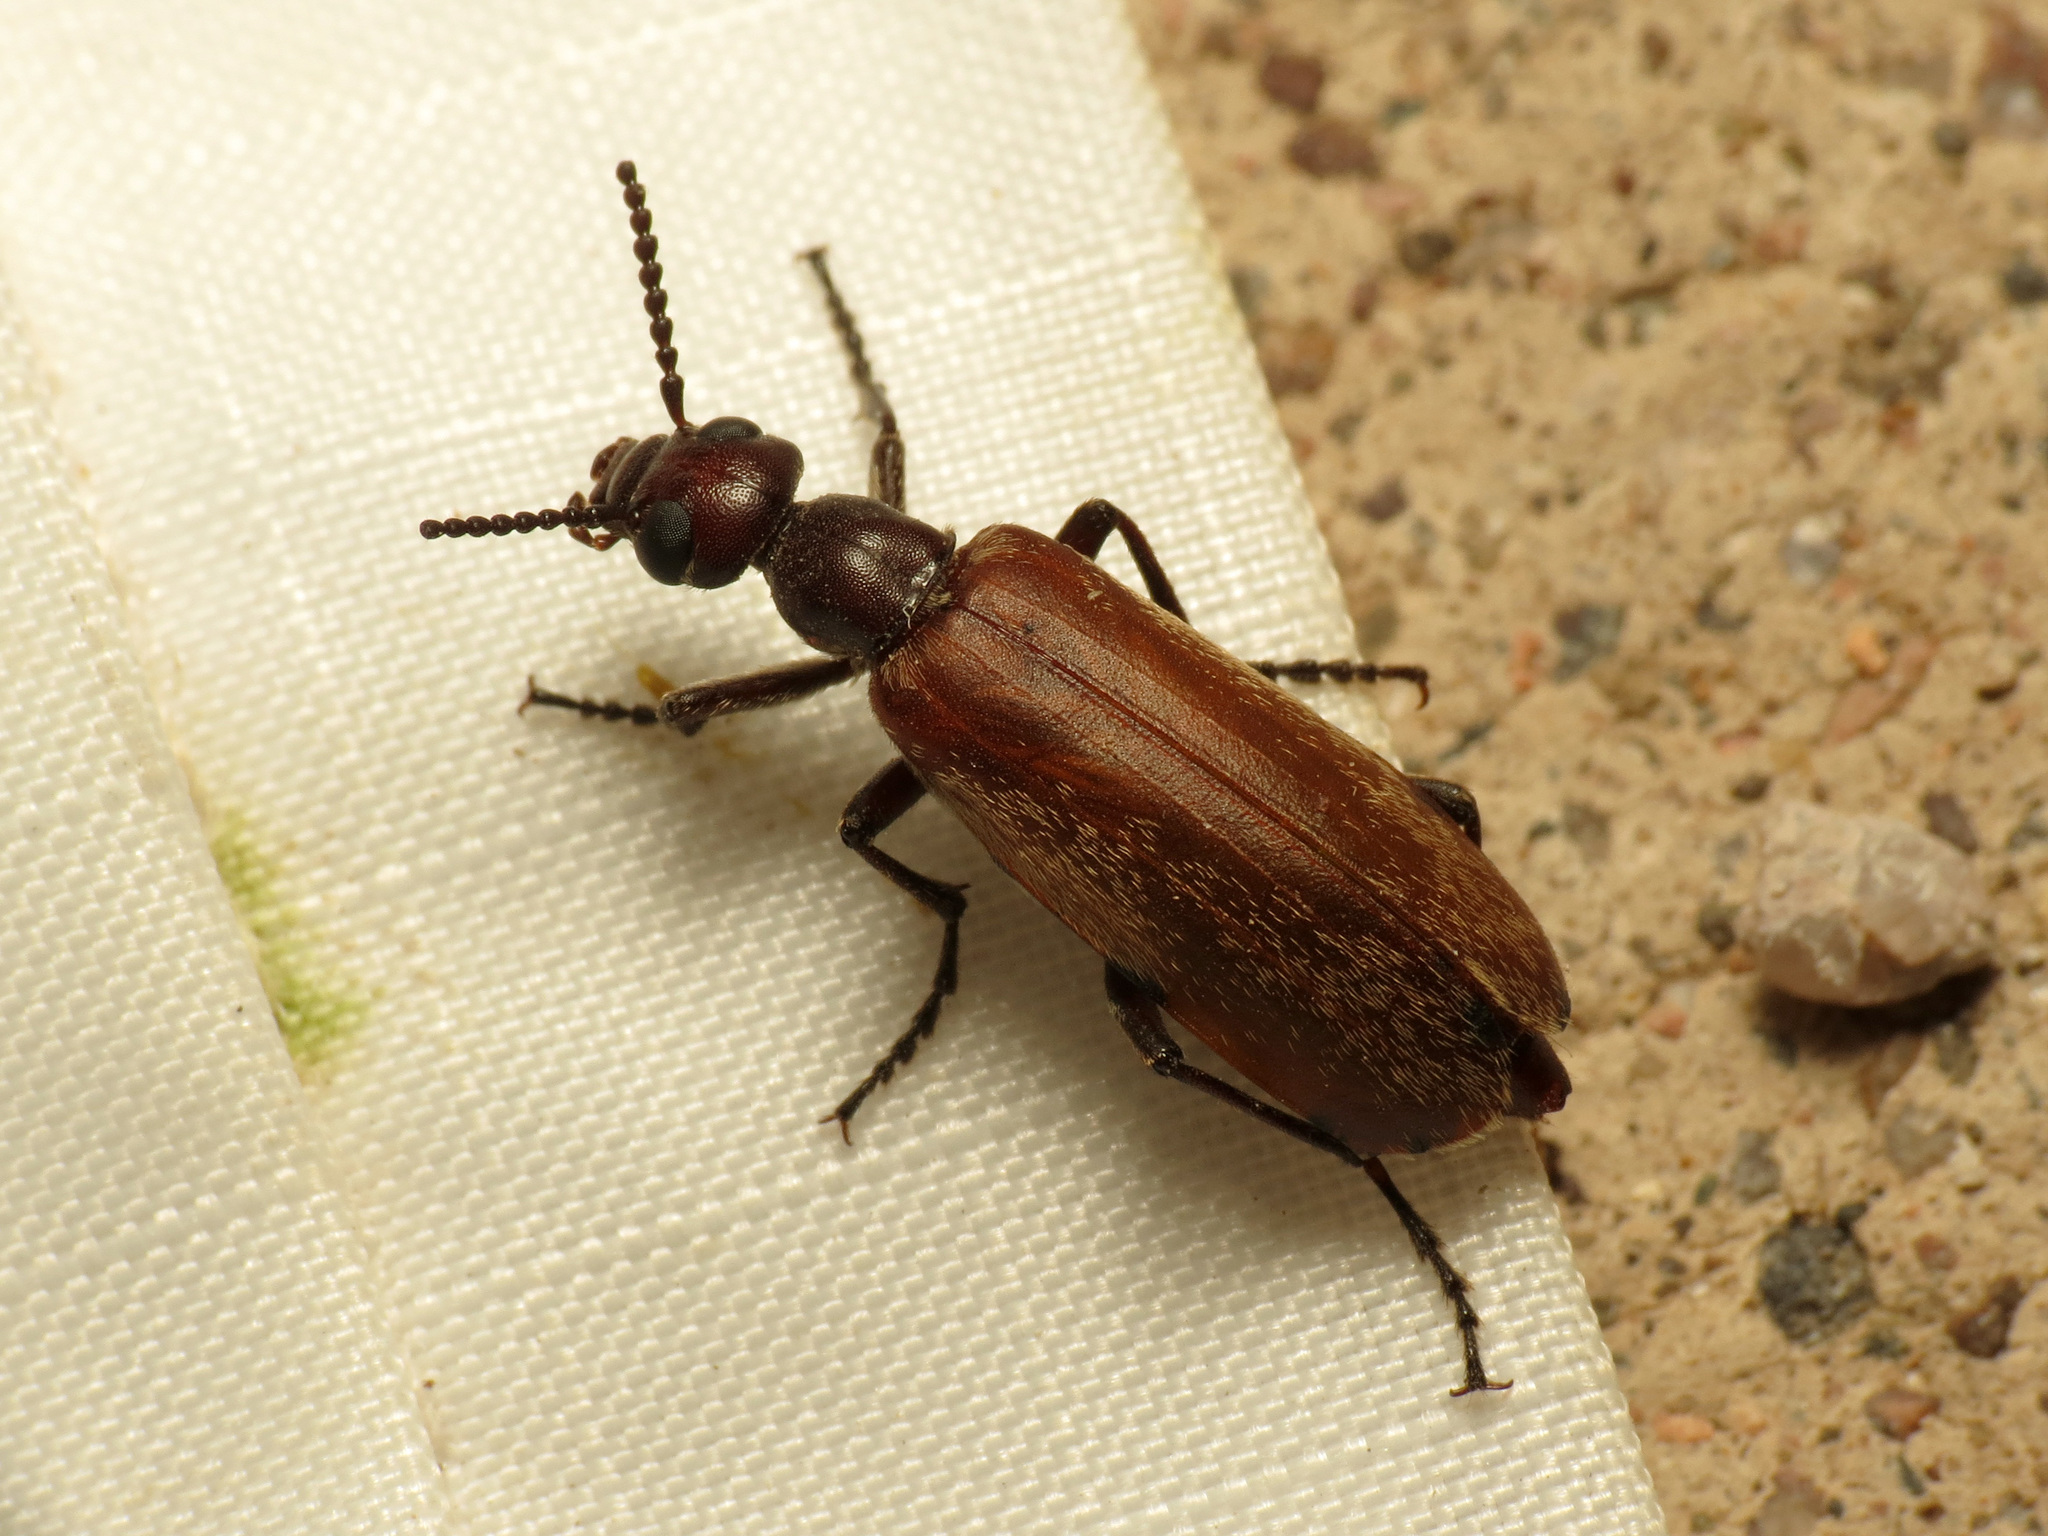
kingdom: Animalia
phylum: Arthropoda
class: Insecta
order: Coleoptera
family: Meloidae
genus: Epicauta
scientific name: Epicauta ochrea
